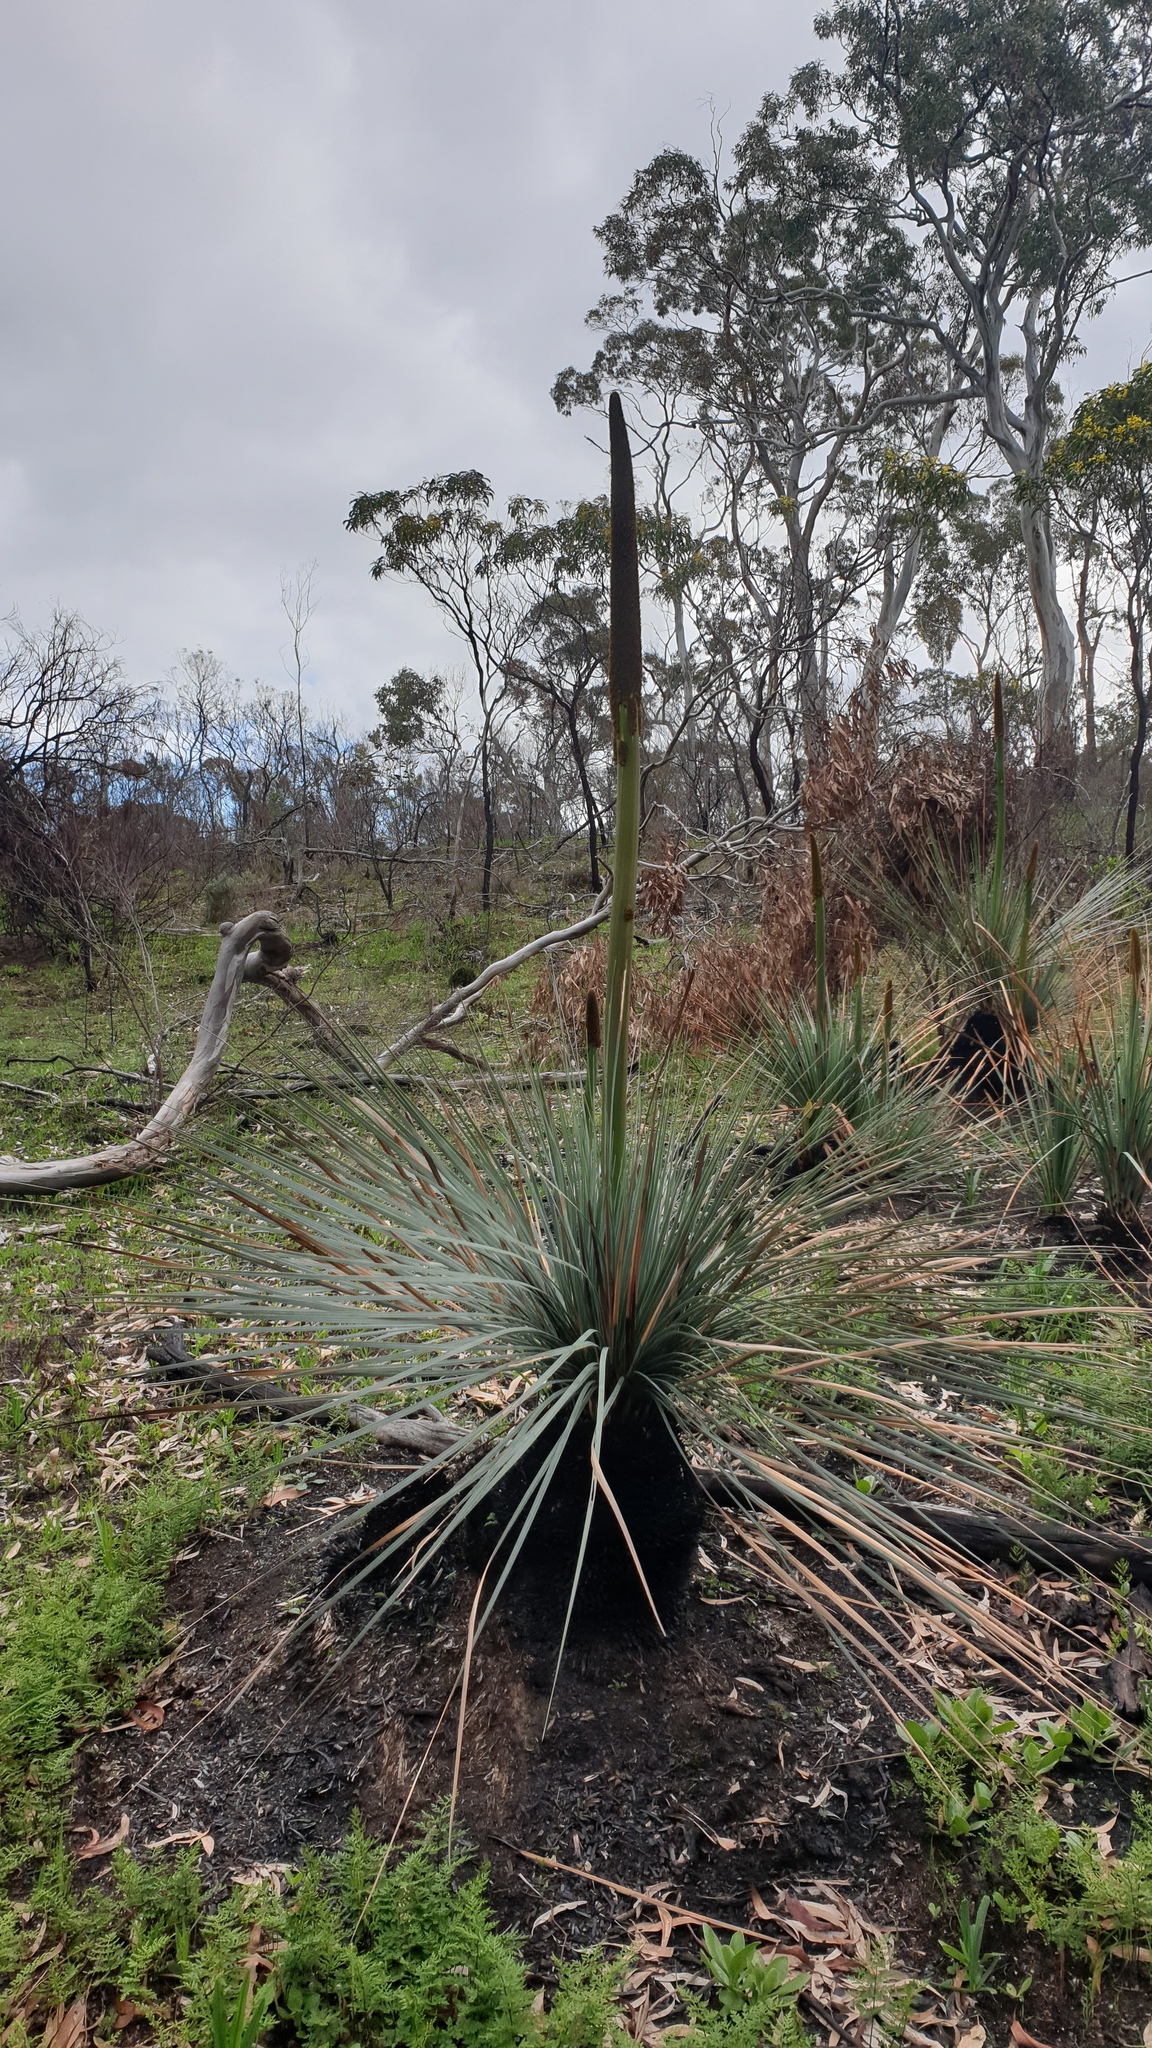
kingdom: Plantae
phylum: Tracheophyta
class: Liliopsida
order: Asparagales
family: Asphodelaceae
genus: Xanthorrhoea
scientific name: Xanthorrhoea semiplana
